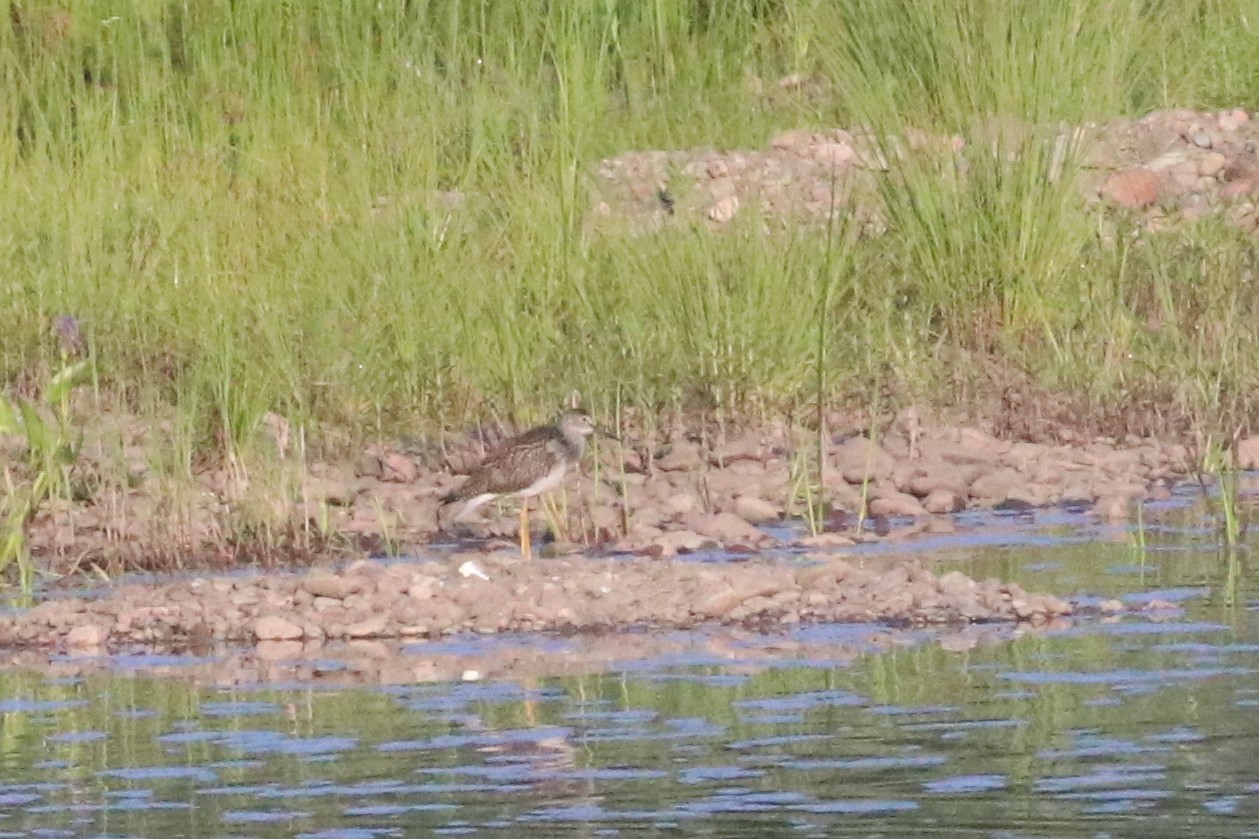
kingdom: Animalia
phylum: Chordata
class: Aves
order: Charadriiformes
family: Scolopacidae
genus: Tringa
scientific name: Tringa melanoleuca
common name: Greater yellowlegs
